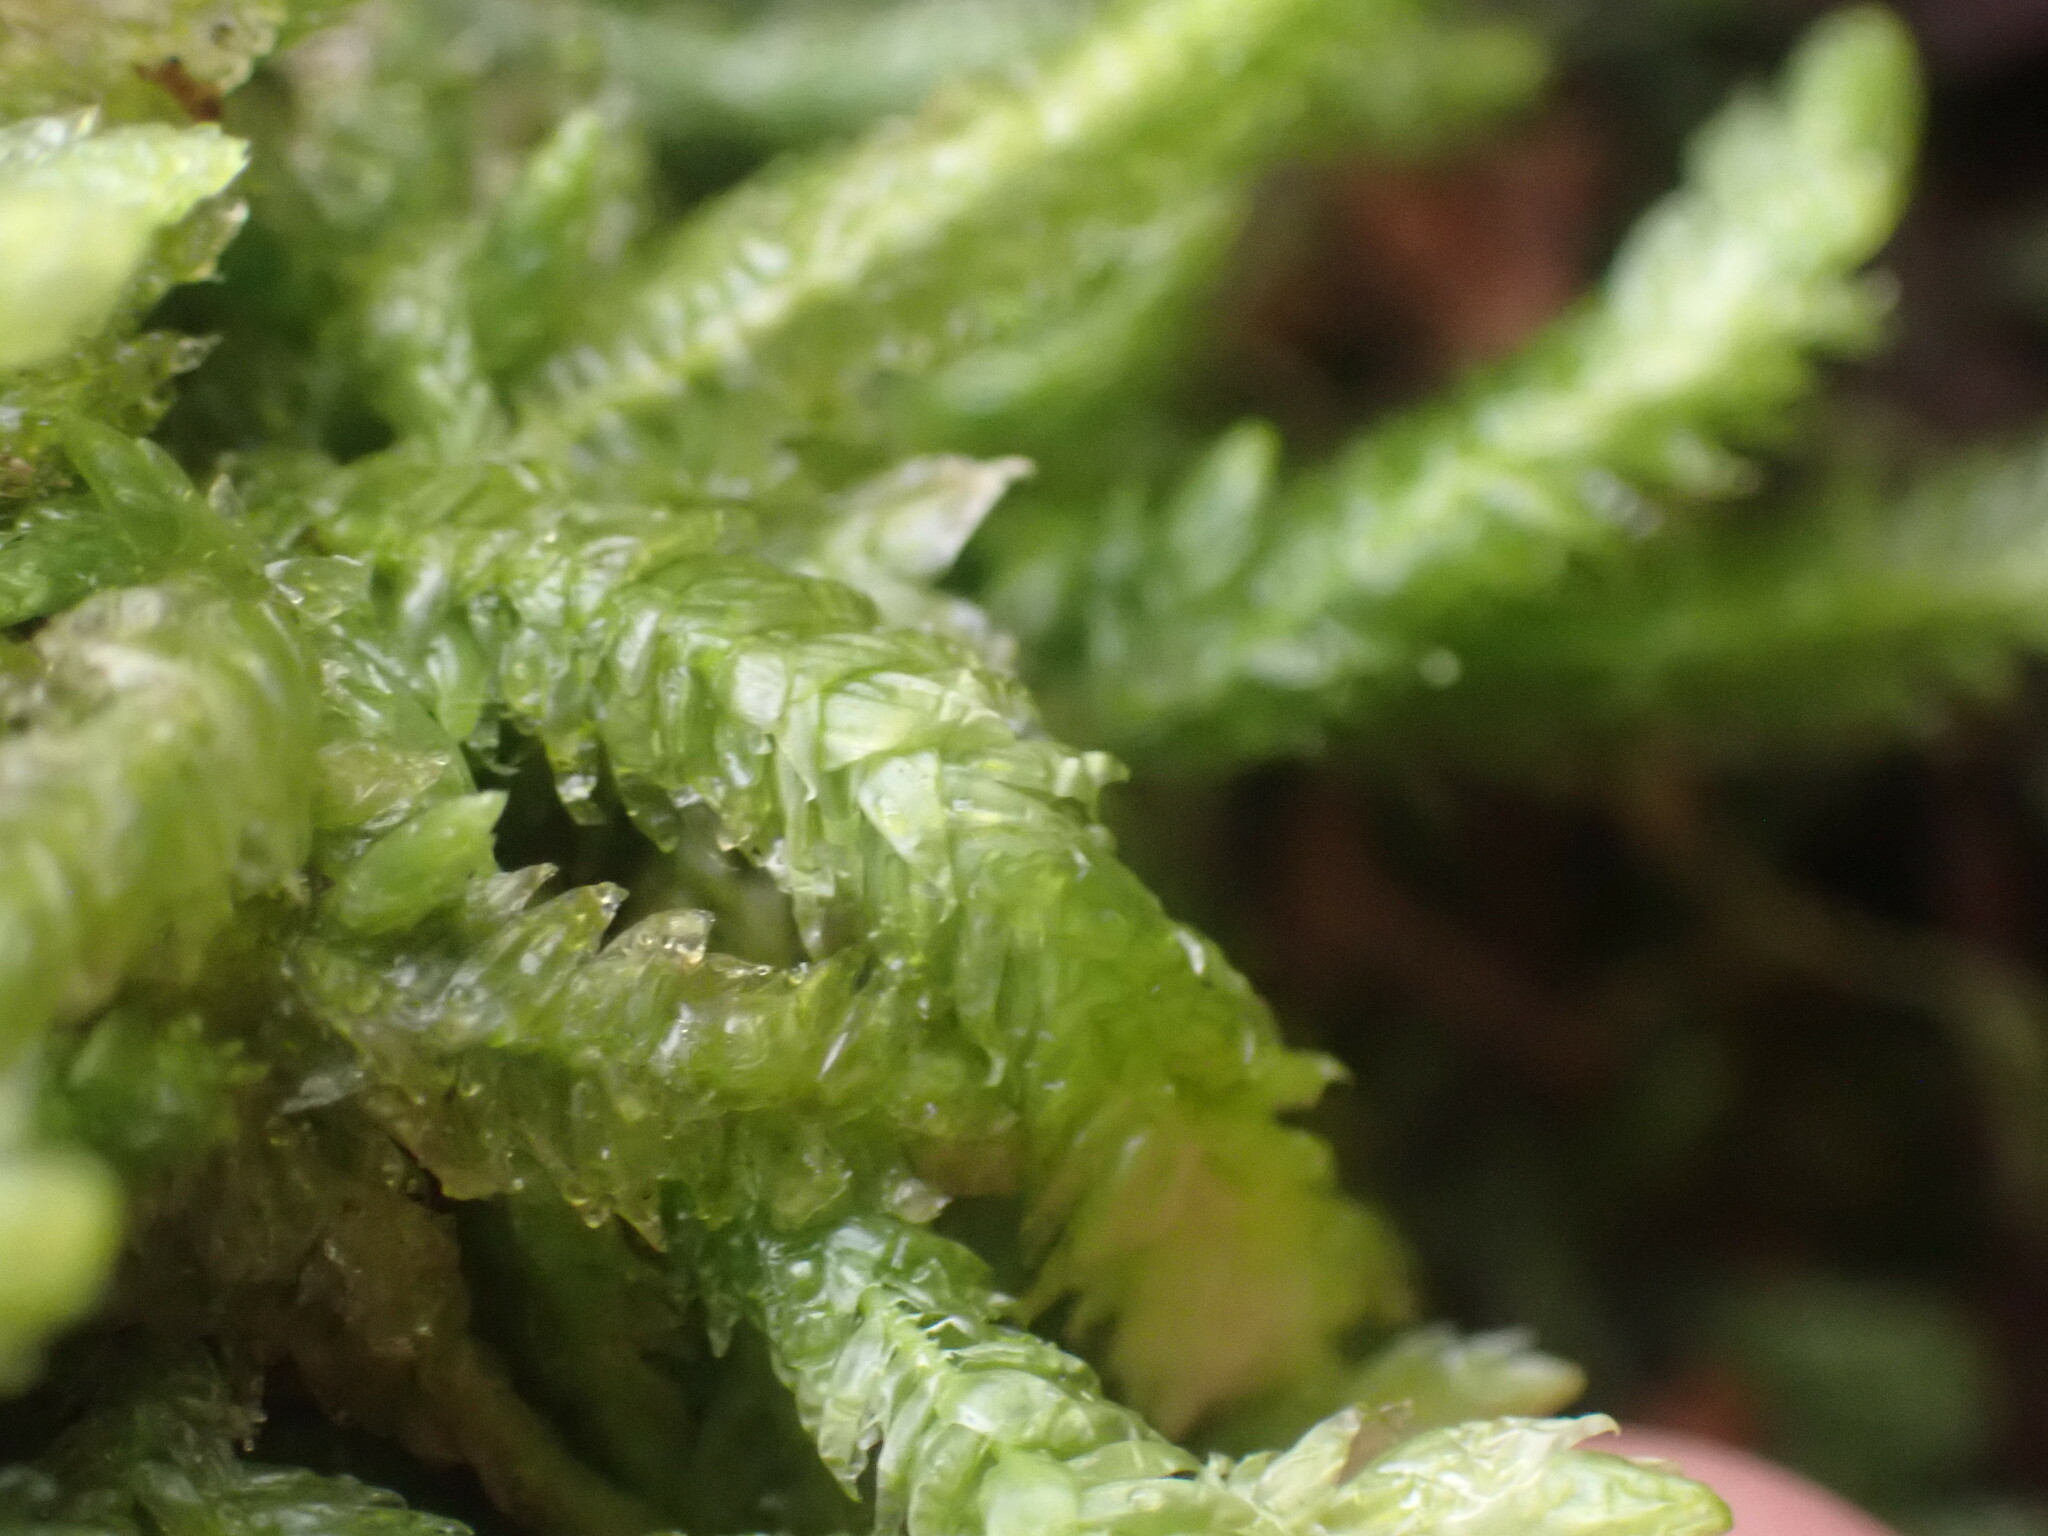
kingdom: Plantae
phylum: Bryophyta
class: Bryopsida
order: Hypnales
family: Plagiotheciaceae
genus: Plagiothecium
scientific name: Plagiothecium undulatum
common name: Waved silk-moss
